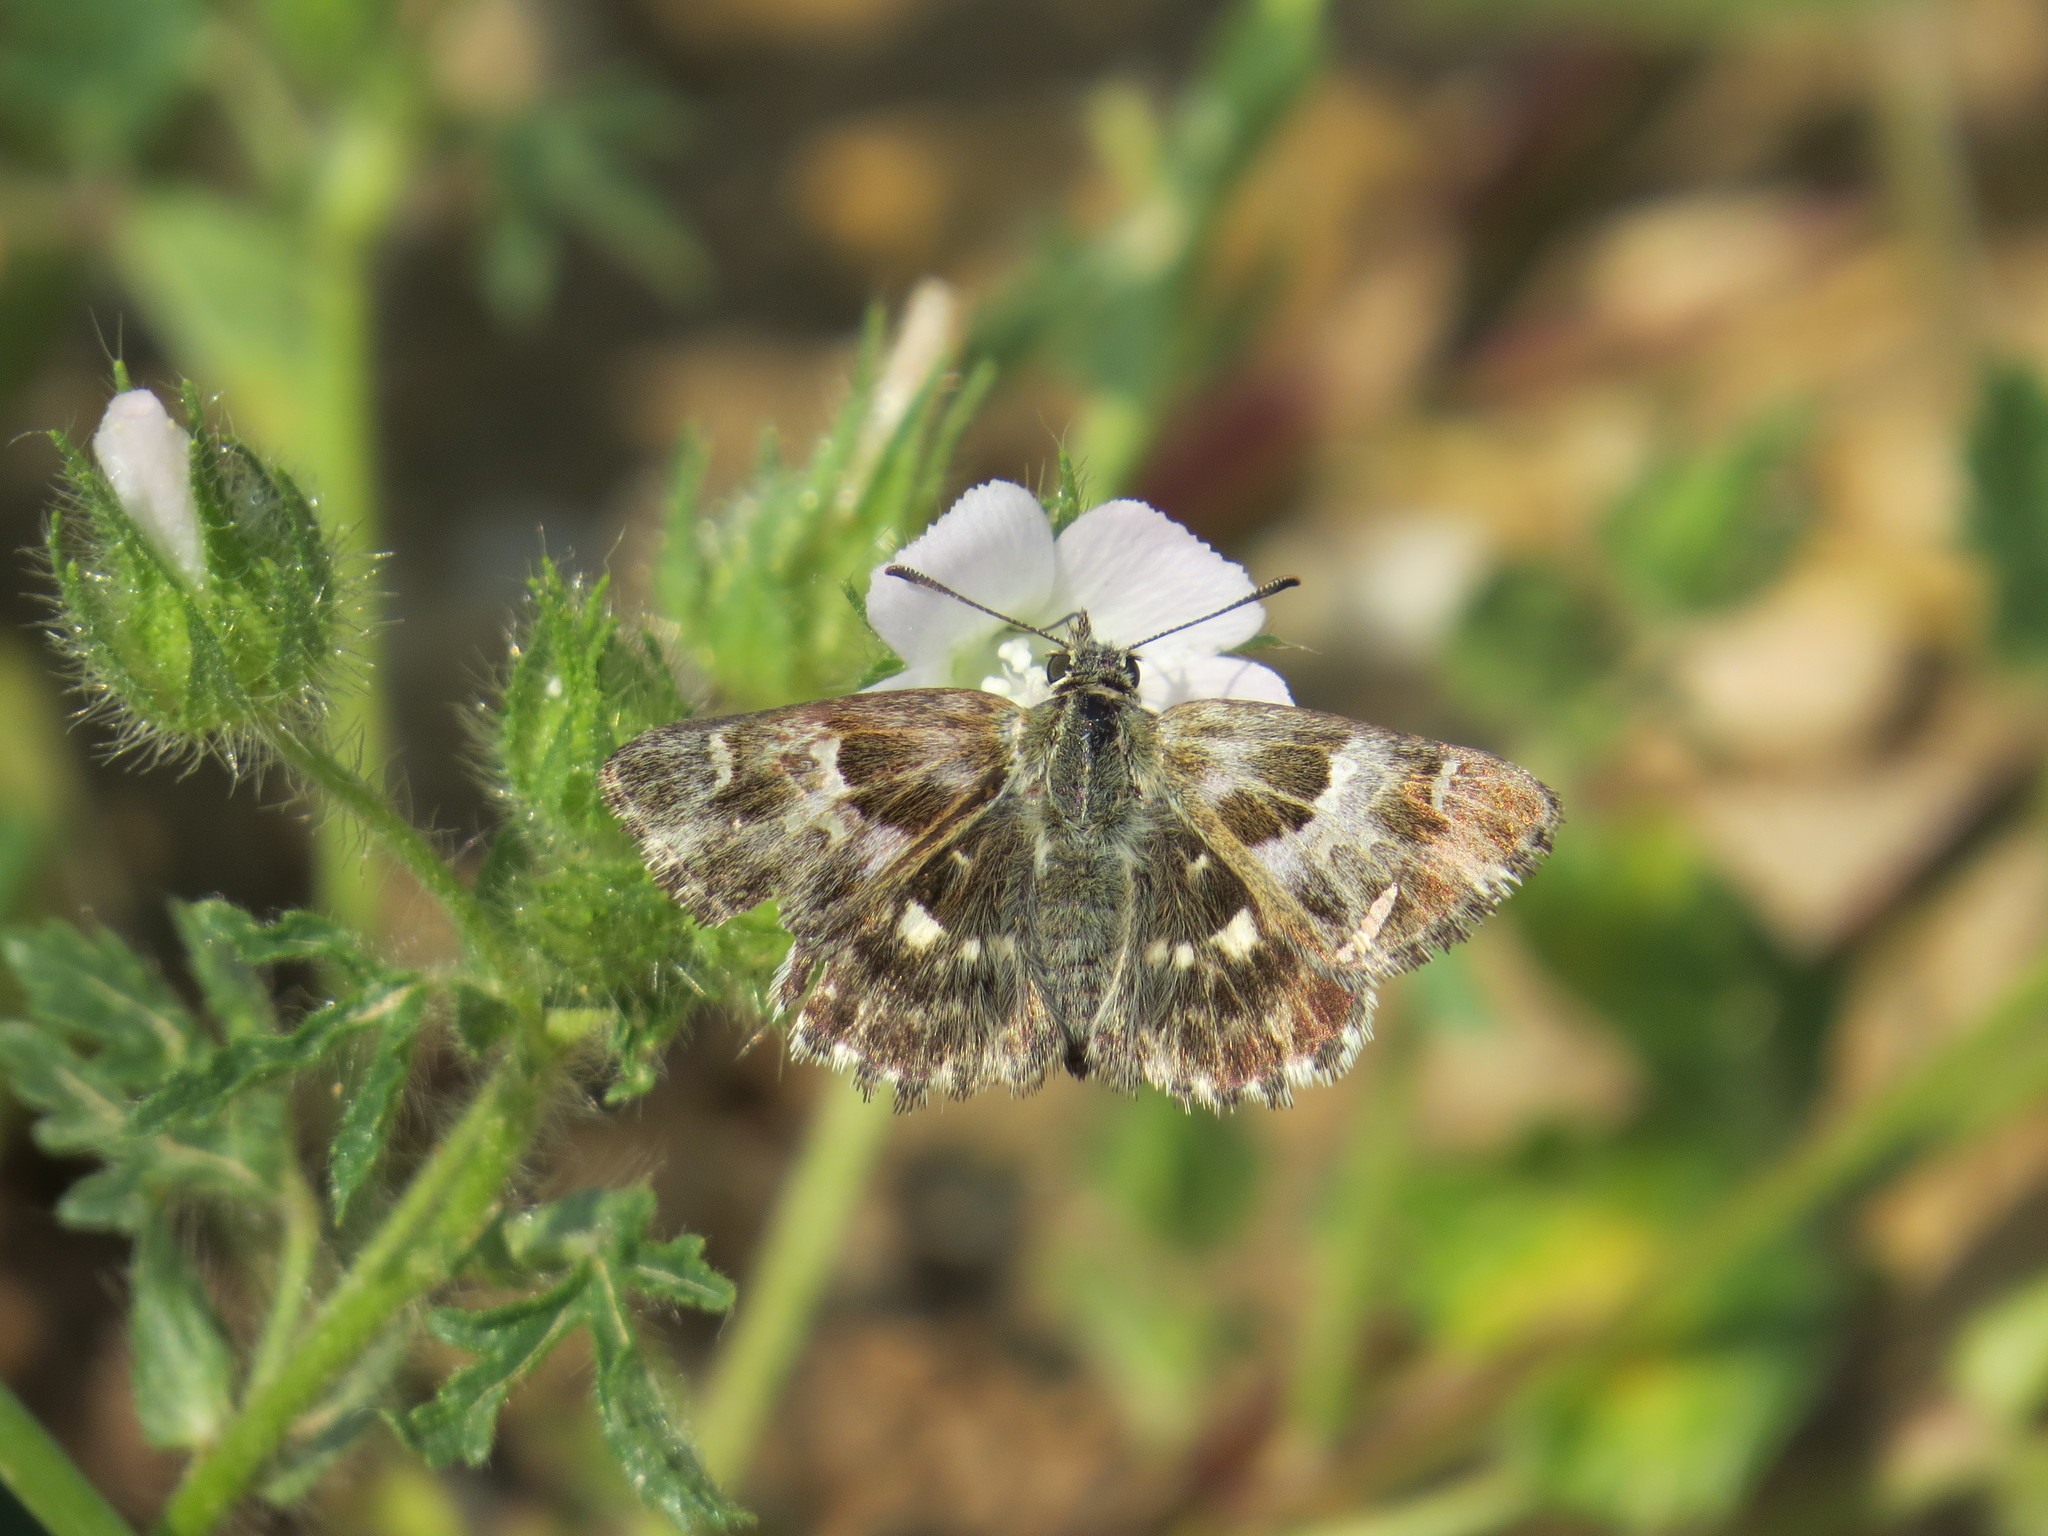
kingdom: Animalia
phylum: Arthropoda
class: Insecta
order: Lepidoptera
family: Hesperiidae
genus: Syrichtus
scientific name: Syrichtus
